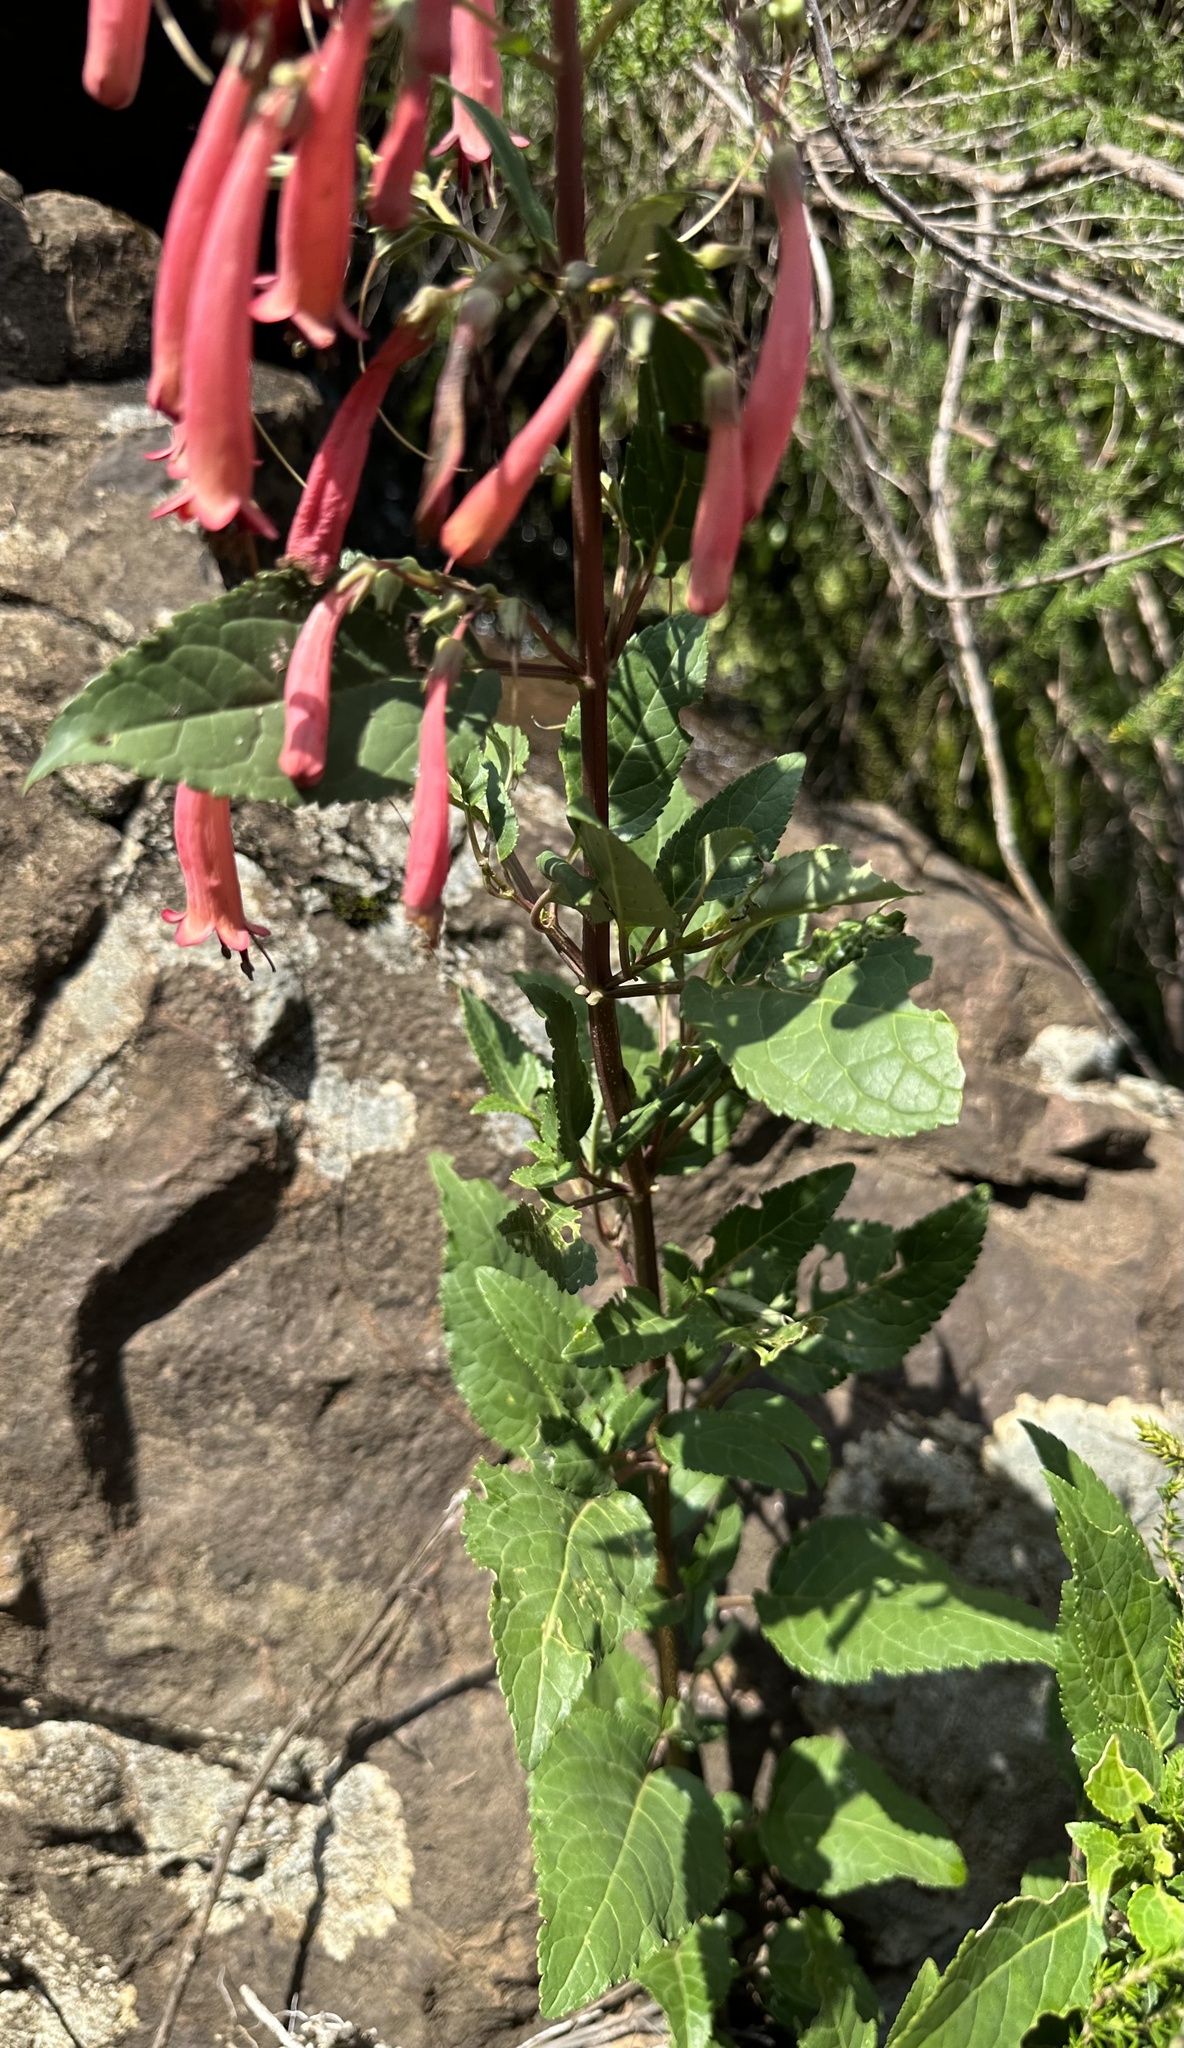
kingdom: Plantae
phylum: Tracheophyta
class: Magnoliopsida
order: Lamiales
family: Scrophulariaceae
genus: Phygelius
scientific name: Phygelius aequalis
